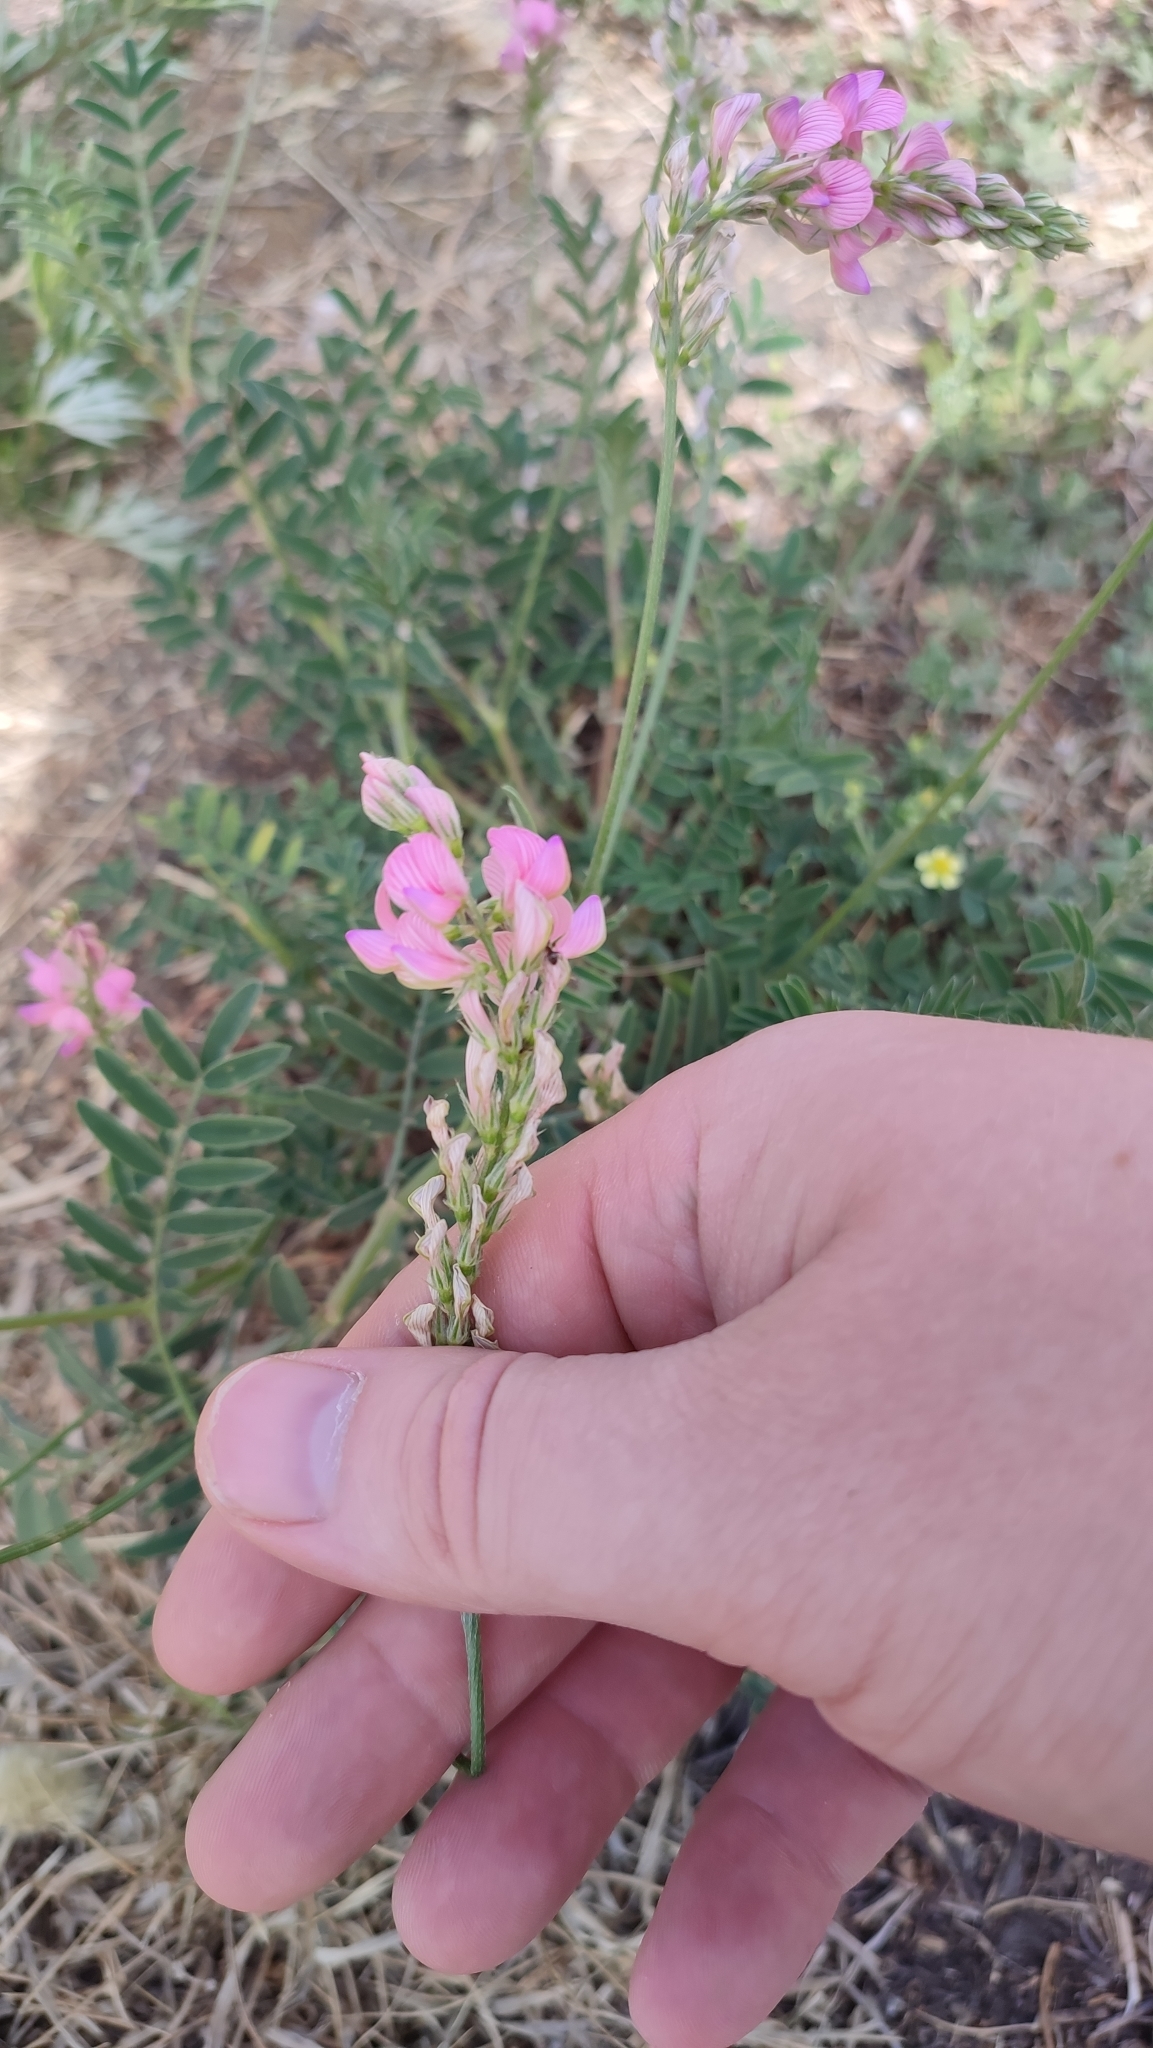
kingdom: Plantae
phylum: Tracheophyta
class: Magnoliopsida
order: Fabales
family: Fabaceae
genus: Onobrychis
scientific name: Onobrychis viciifolia
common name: Sainfoin
